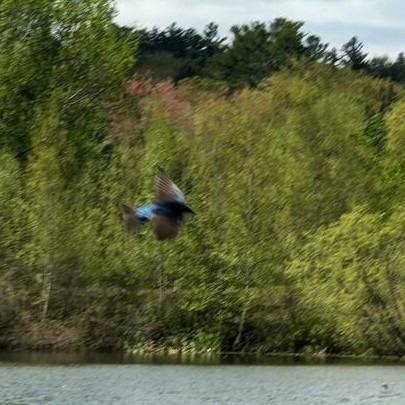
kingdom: Animalia
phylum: Chordata
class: Aves
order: Passeriformes
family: Hirundinidae
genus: Tachycineta
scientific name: Tachycineta bicolor
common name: Tree swallow
